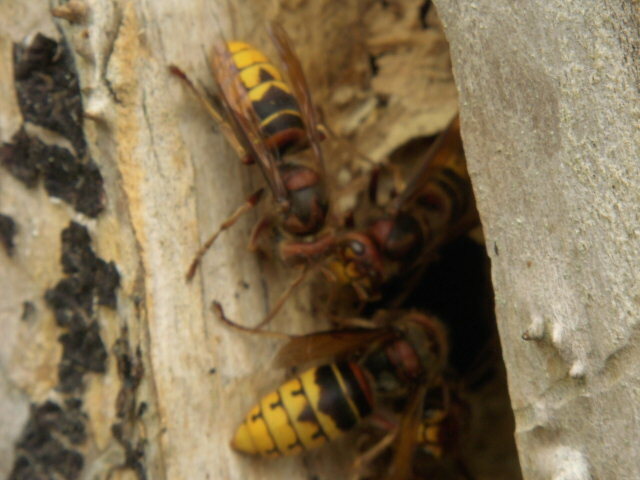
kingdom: Animalia
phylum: Arthropoda
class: Insecta
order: Hymenoptera
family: Vespidae
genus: Vespa
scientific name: Vespa crabro
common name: Hornet
